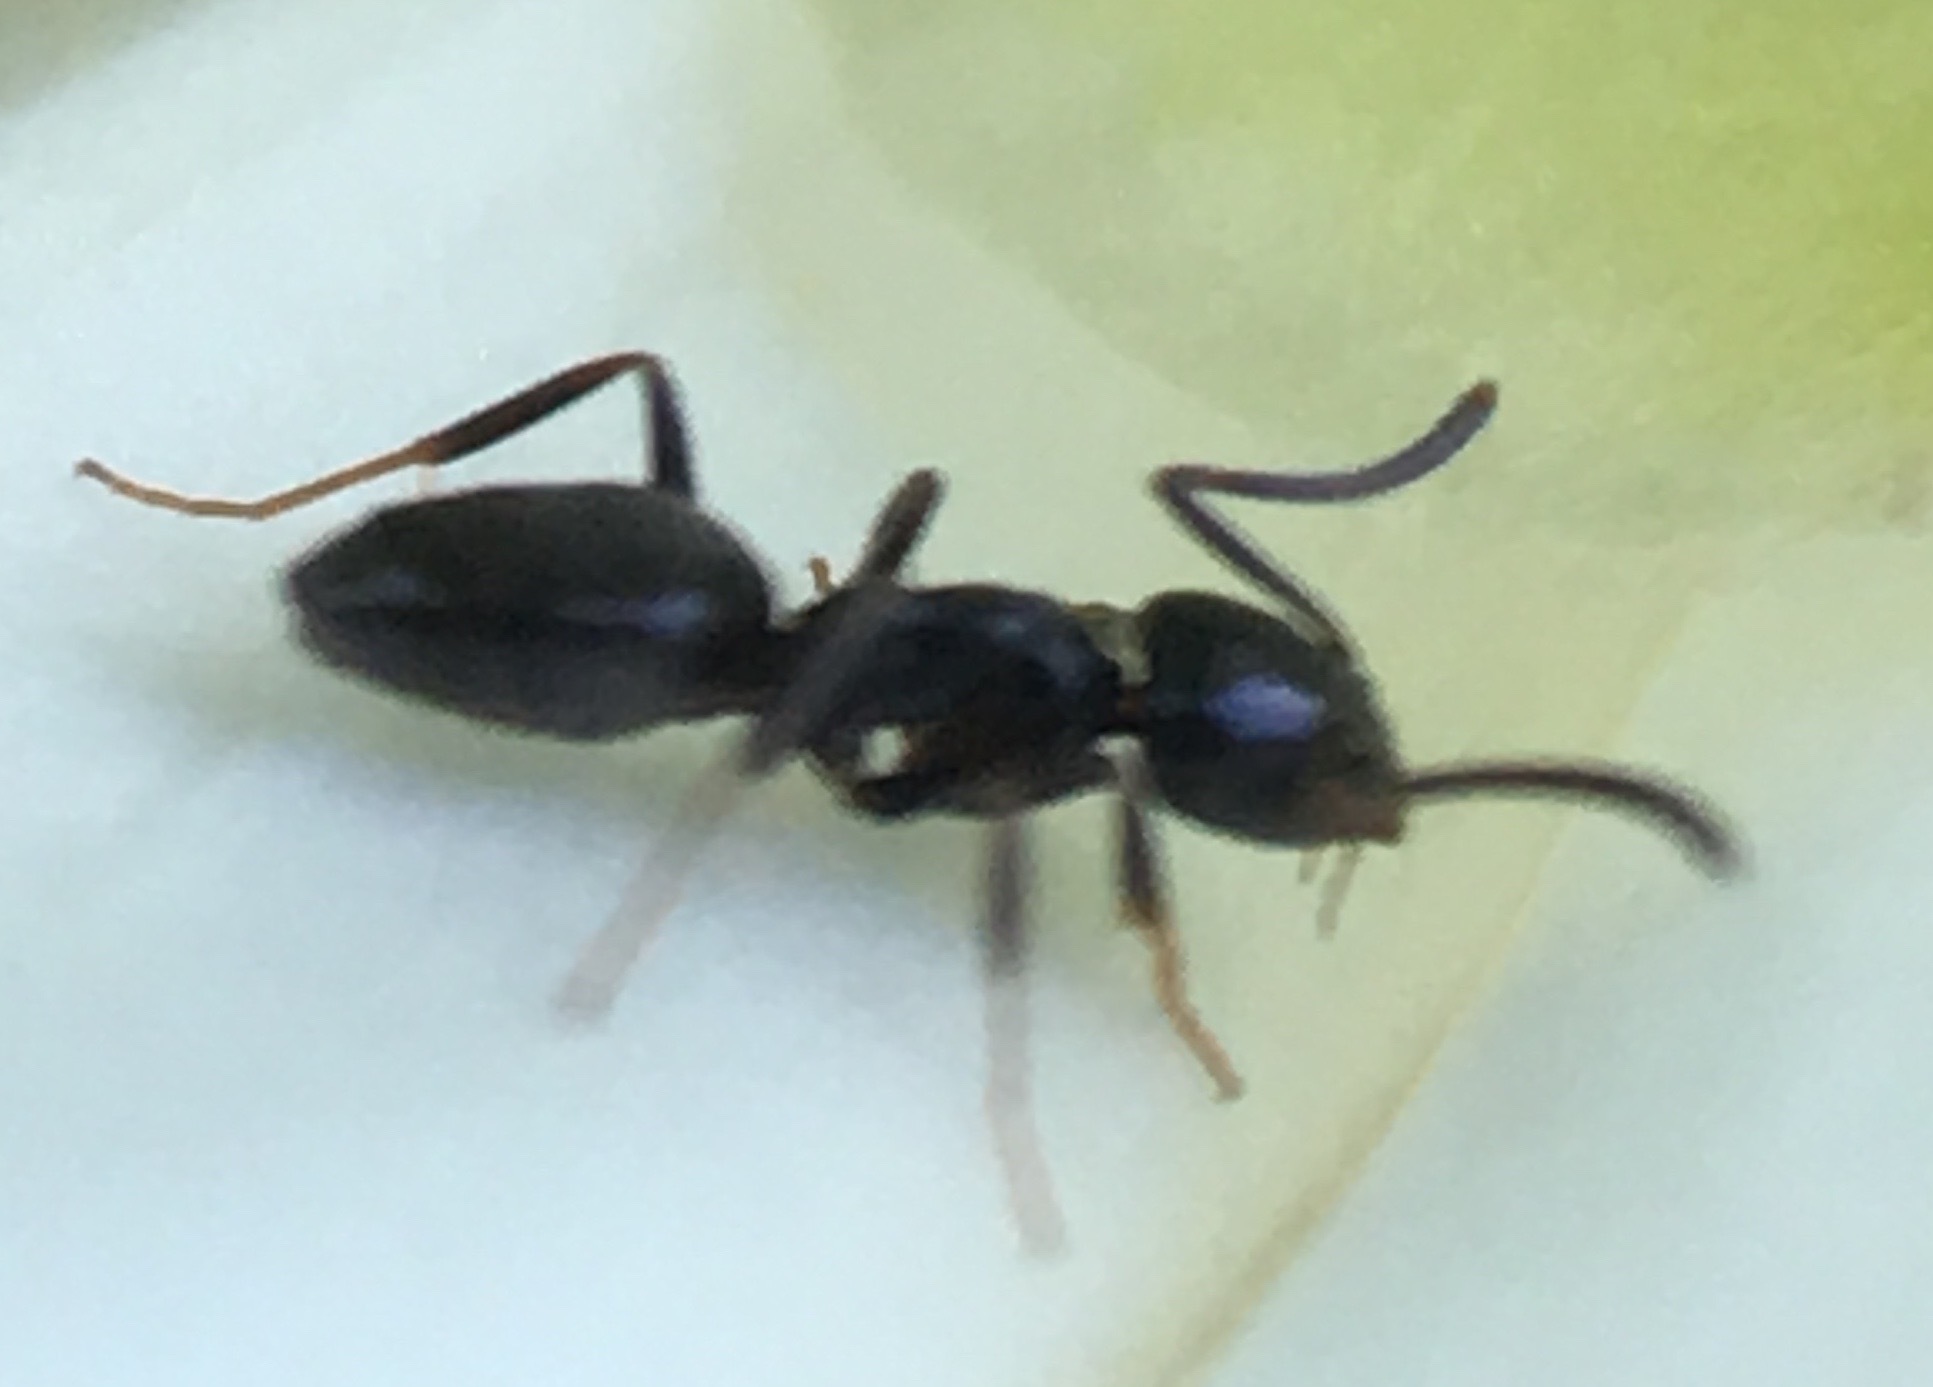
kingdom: Animalia
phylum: Arthropoda
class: Insecta
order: Hymenoptera
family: Formicidae
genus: Tapinoma
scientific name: Tapinoma sessile
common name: Odorous house ant
